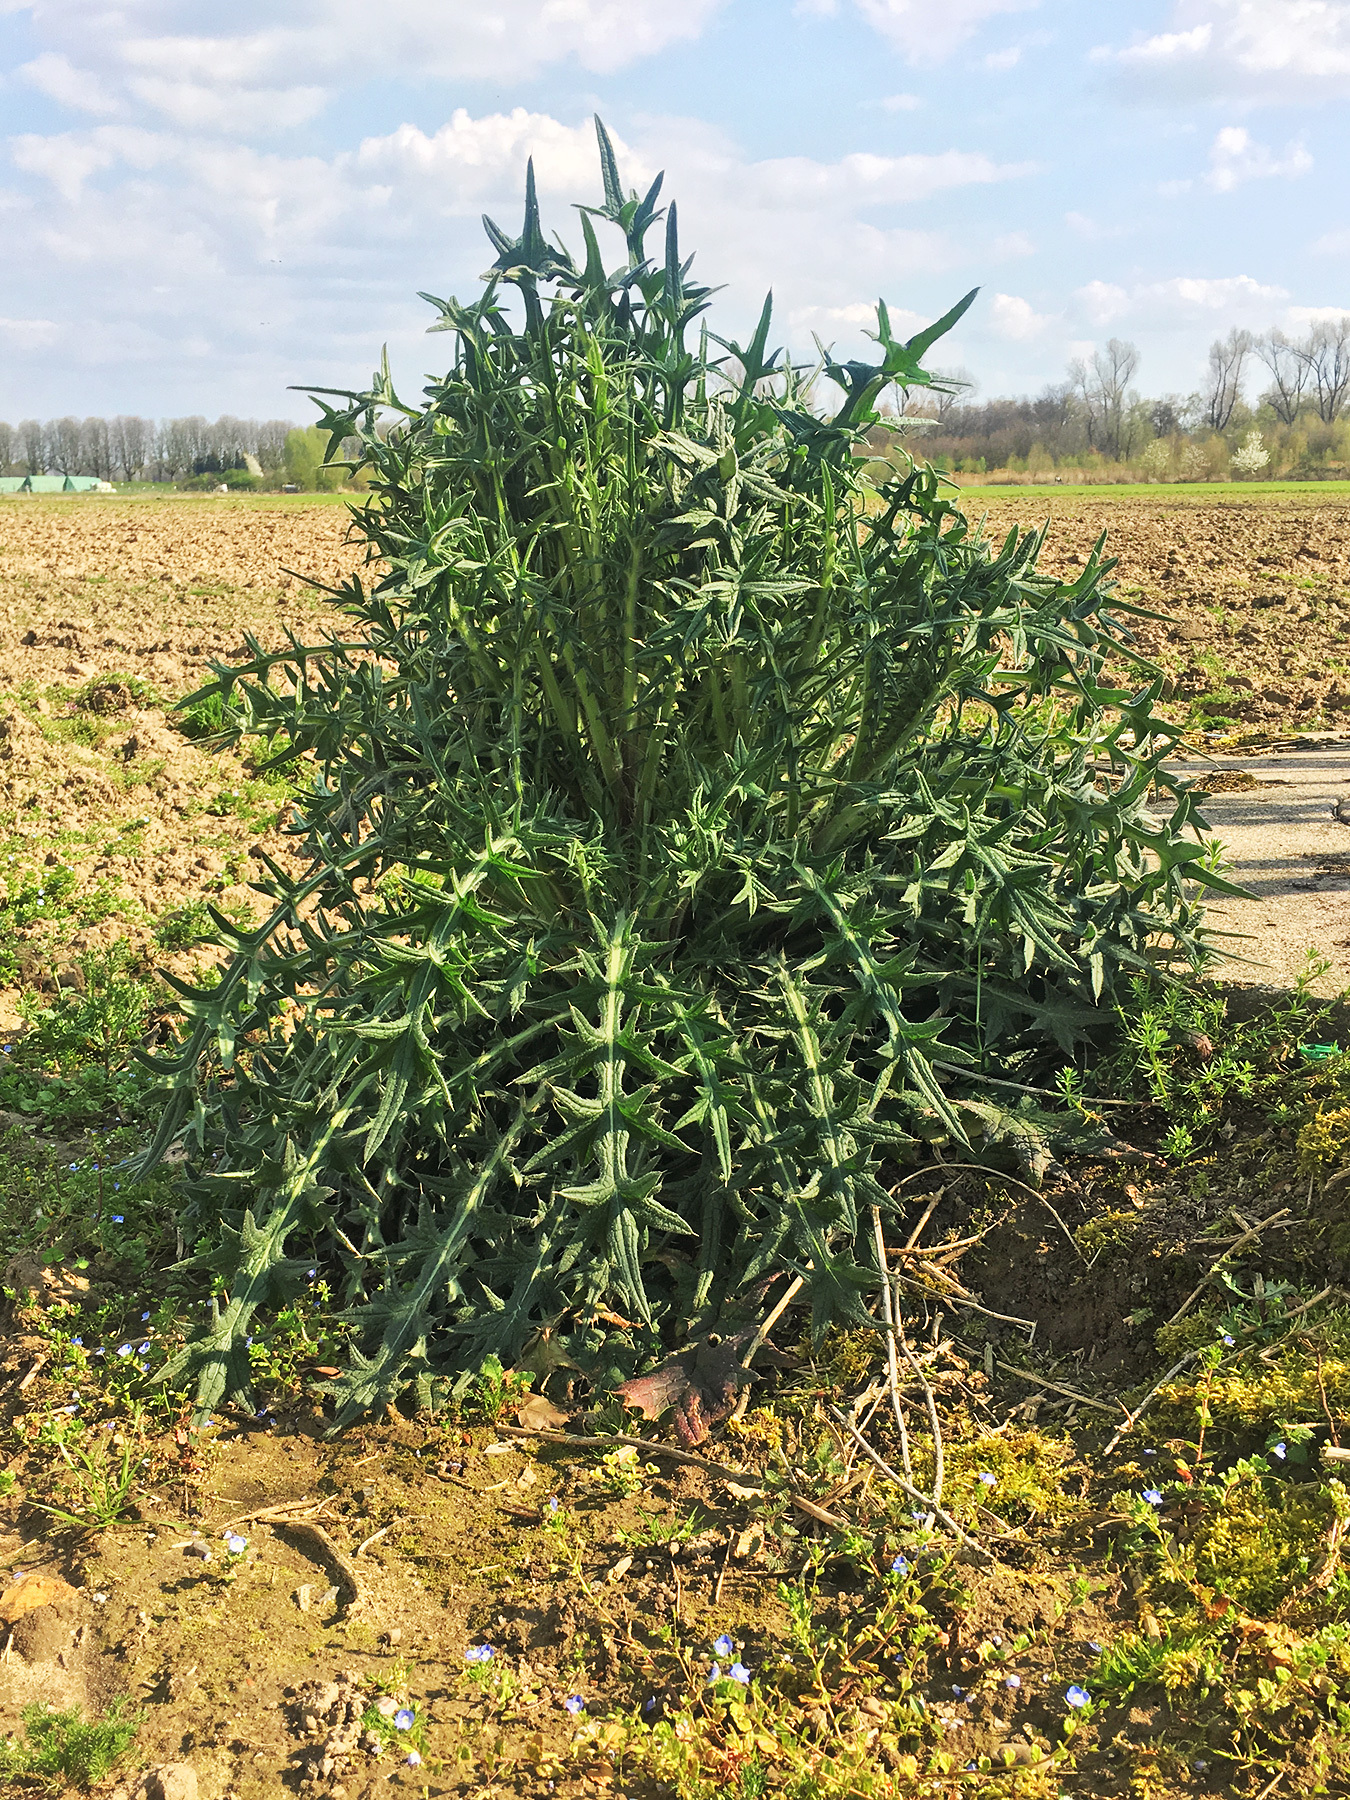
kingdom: Plantae
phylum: Tracheophyta
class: Magnoliopsida
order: Asterales
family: Asteraceae
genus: Cirsium
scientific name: Cirsium vulgare
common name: Bull thistle
